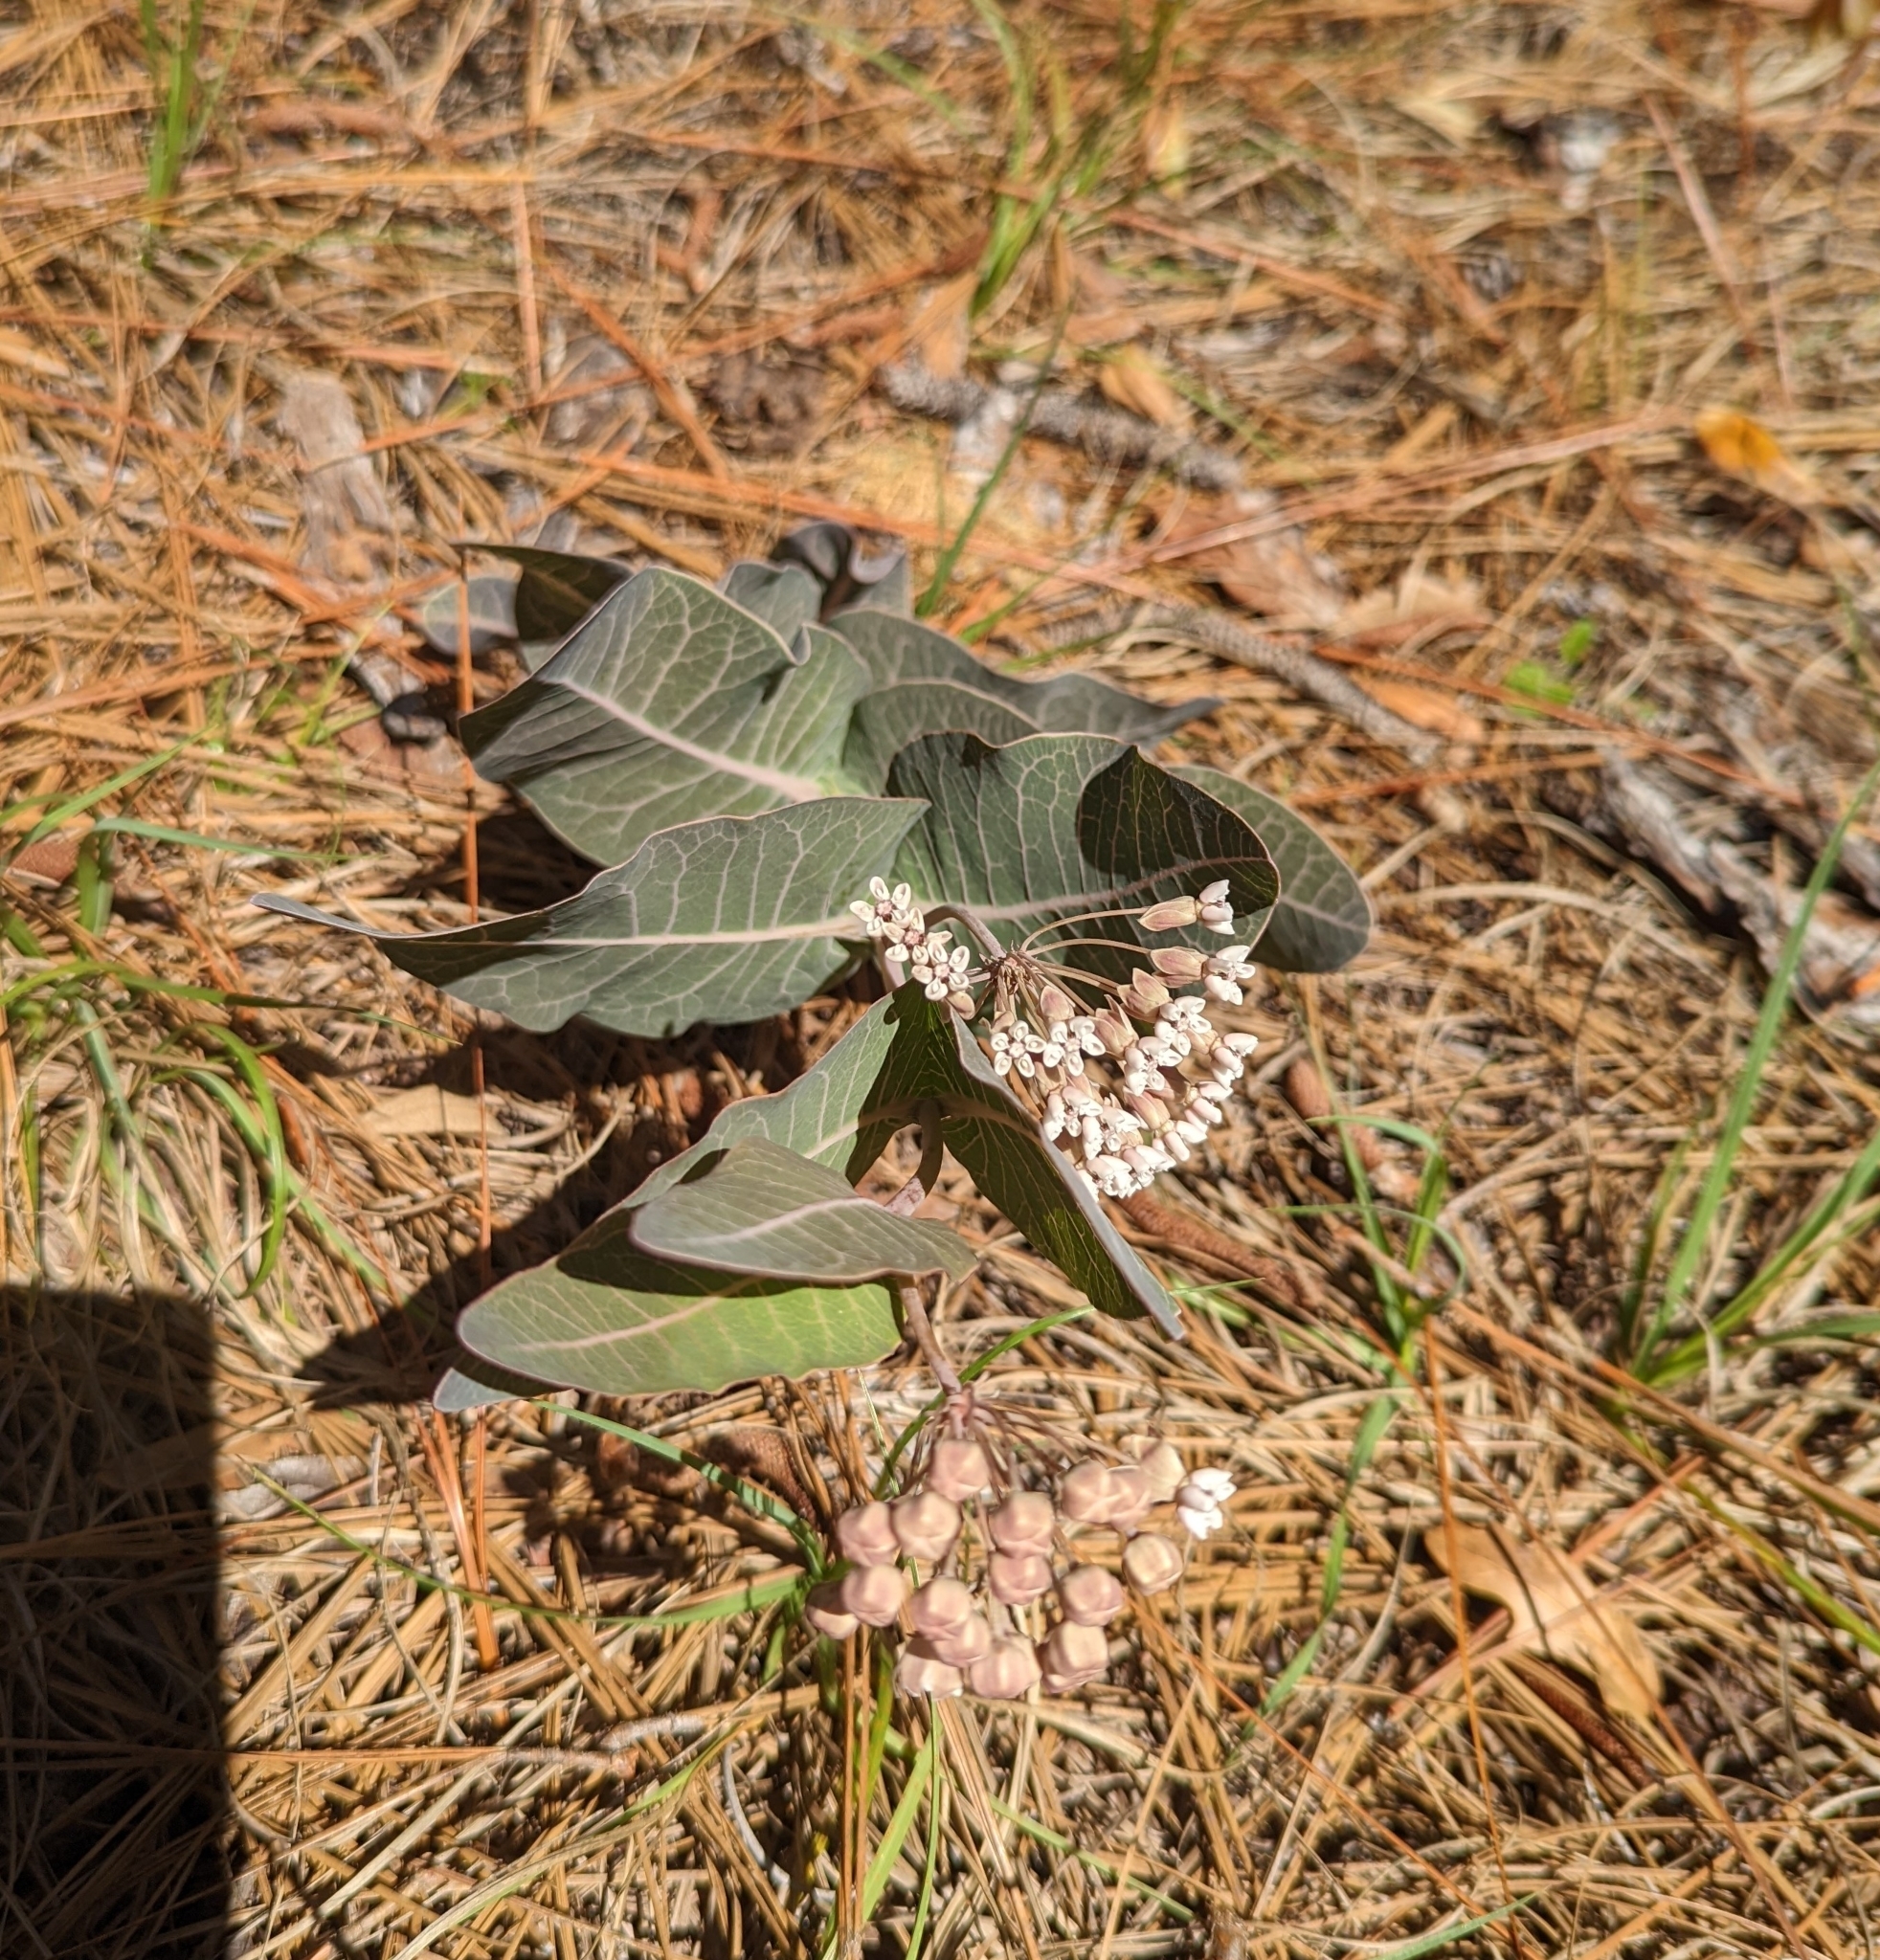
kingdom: Plantae
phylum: Tracheophyta
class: Magnoliopsida
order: Gentianales
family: Apocynaceae
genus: Asclepias
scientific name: Asclepias humistrata
